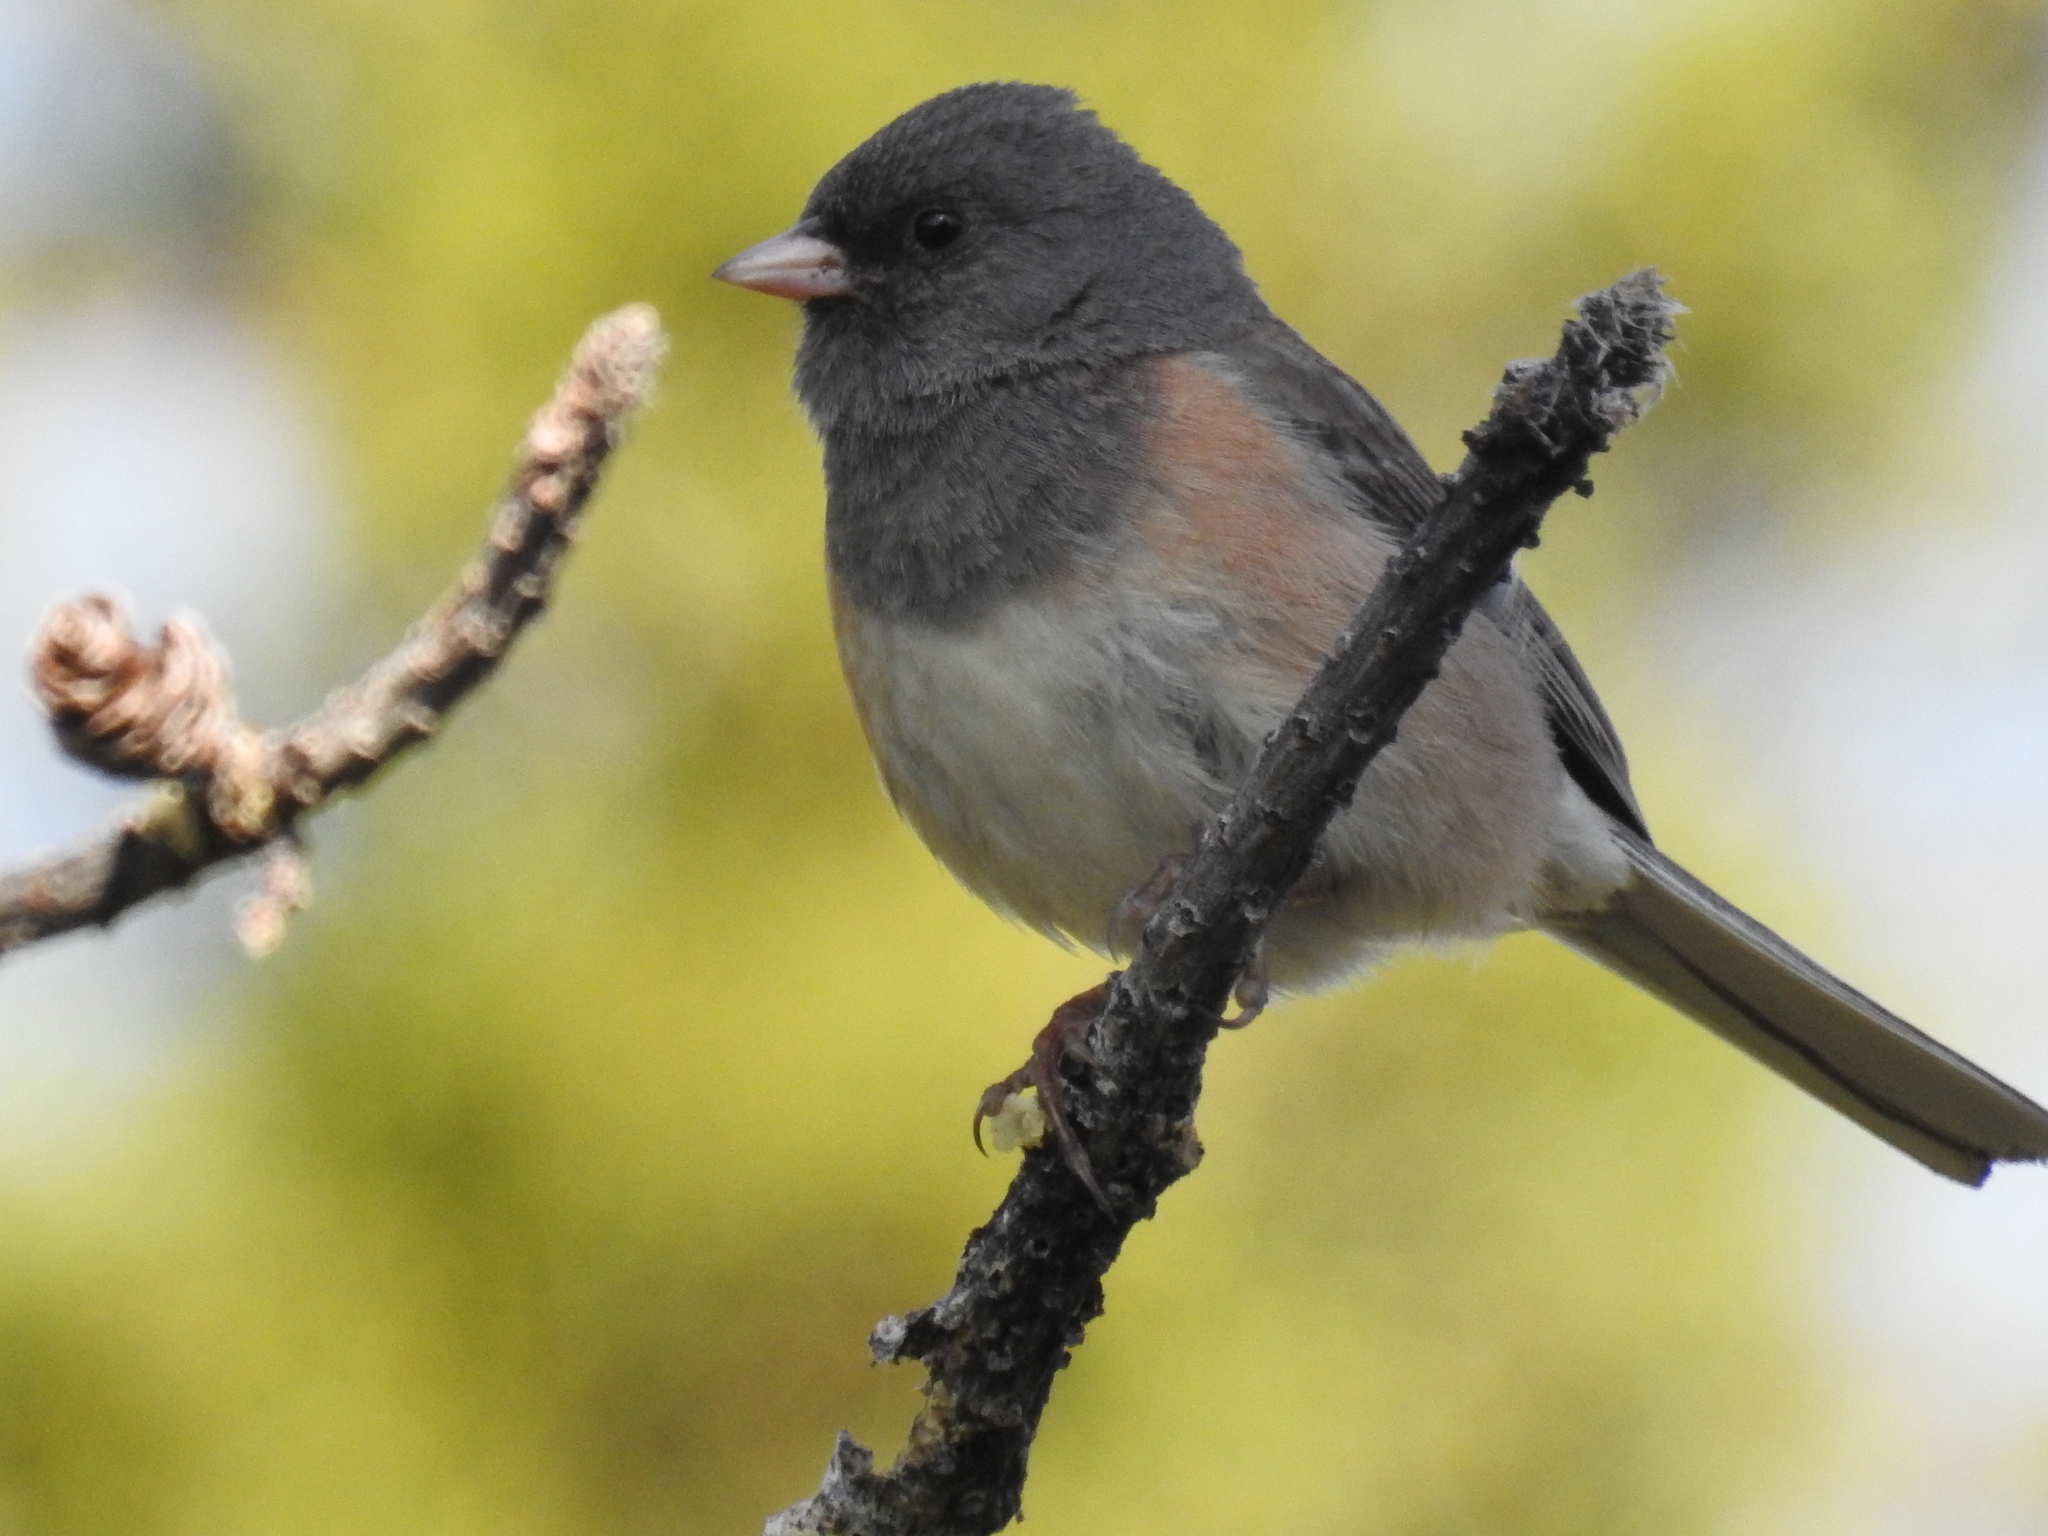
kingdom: Animalia
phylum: Chordata
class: Aves
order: Passeriformes
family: Passerellidae
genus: Junco
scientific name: Junco hyemalis
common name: Dark-eyed junco
